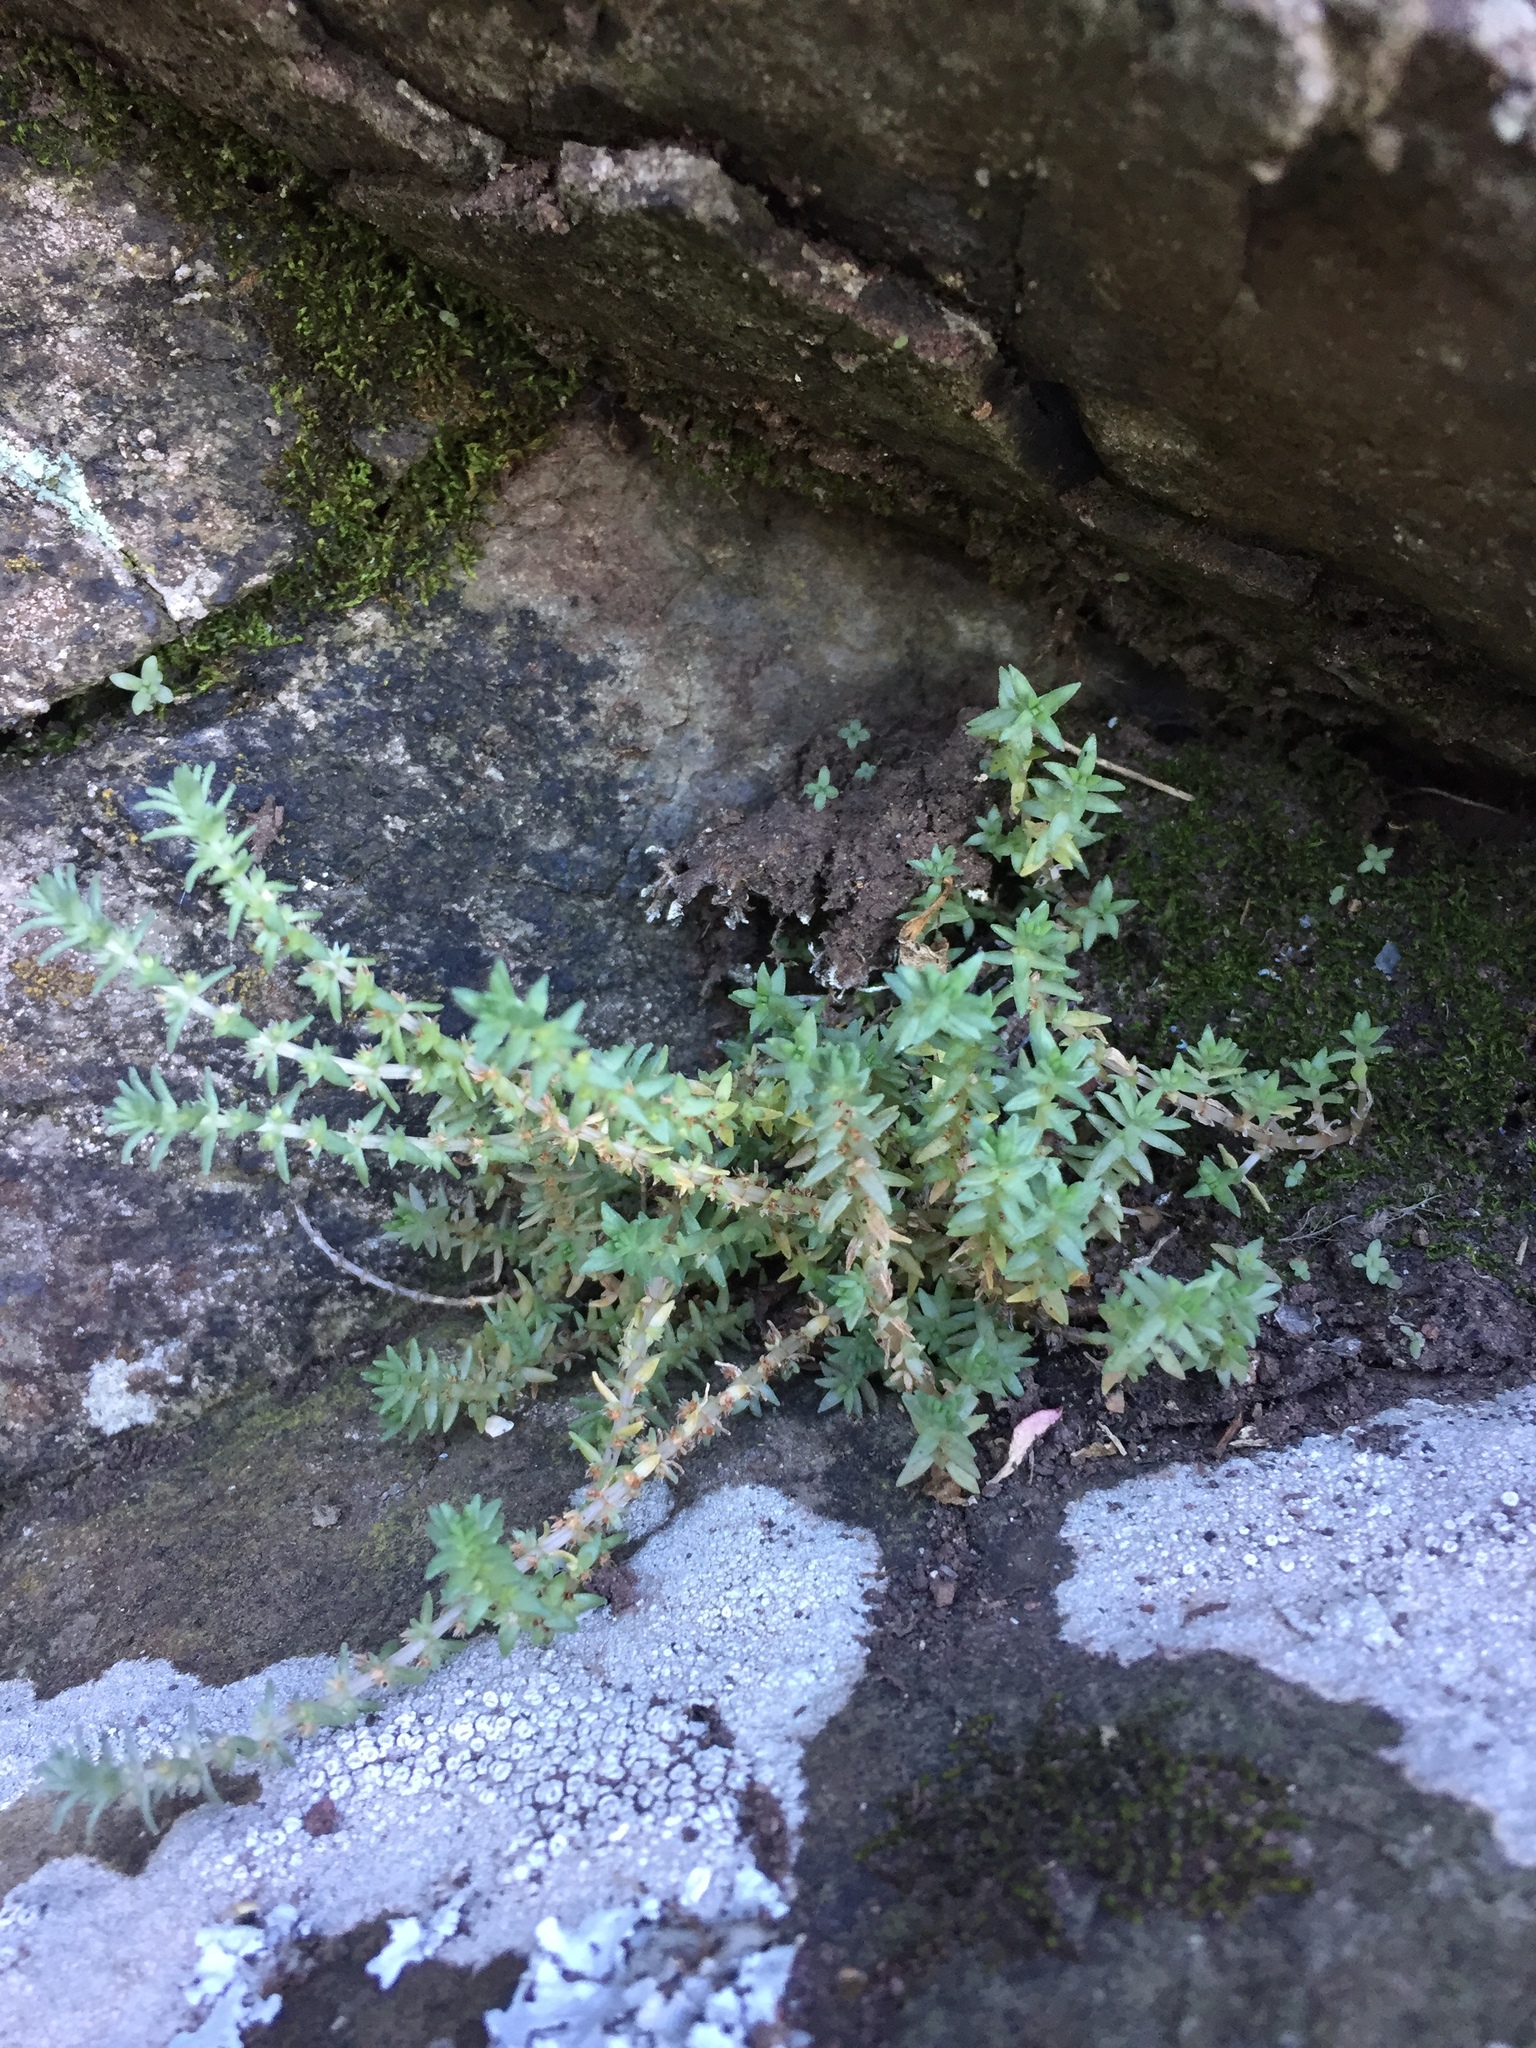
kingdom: Plantae
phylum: Tracheophyta
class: Magnoliopsida
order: Saxifragales
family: Crassulaceae
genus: Crassula
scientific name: Crassula sieberiana
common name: Siberian pygmyweed
